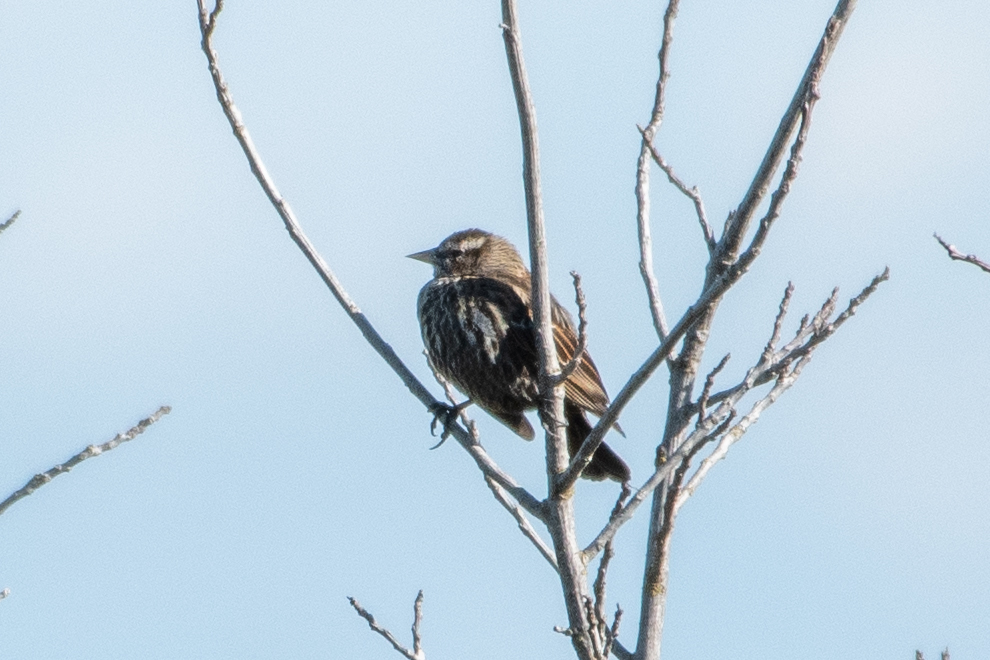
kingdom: Animalia
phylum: Chordata
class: Aves
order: Passeriformes
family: Icteridae
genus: Agelaius
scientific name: Agelaius phoeniceus
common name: Red-winged blackbird
